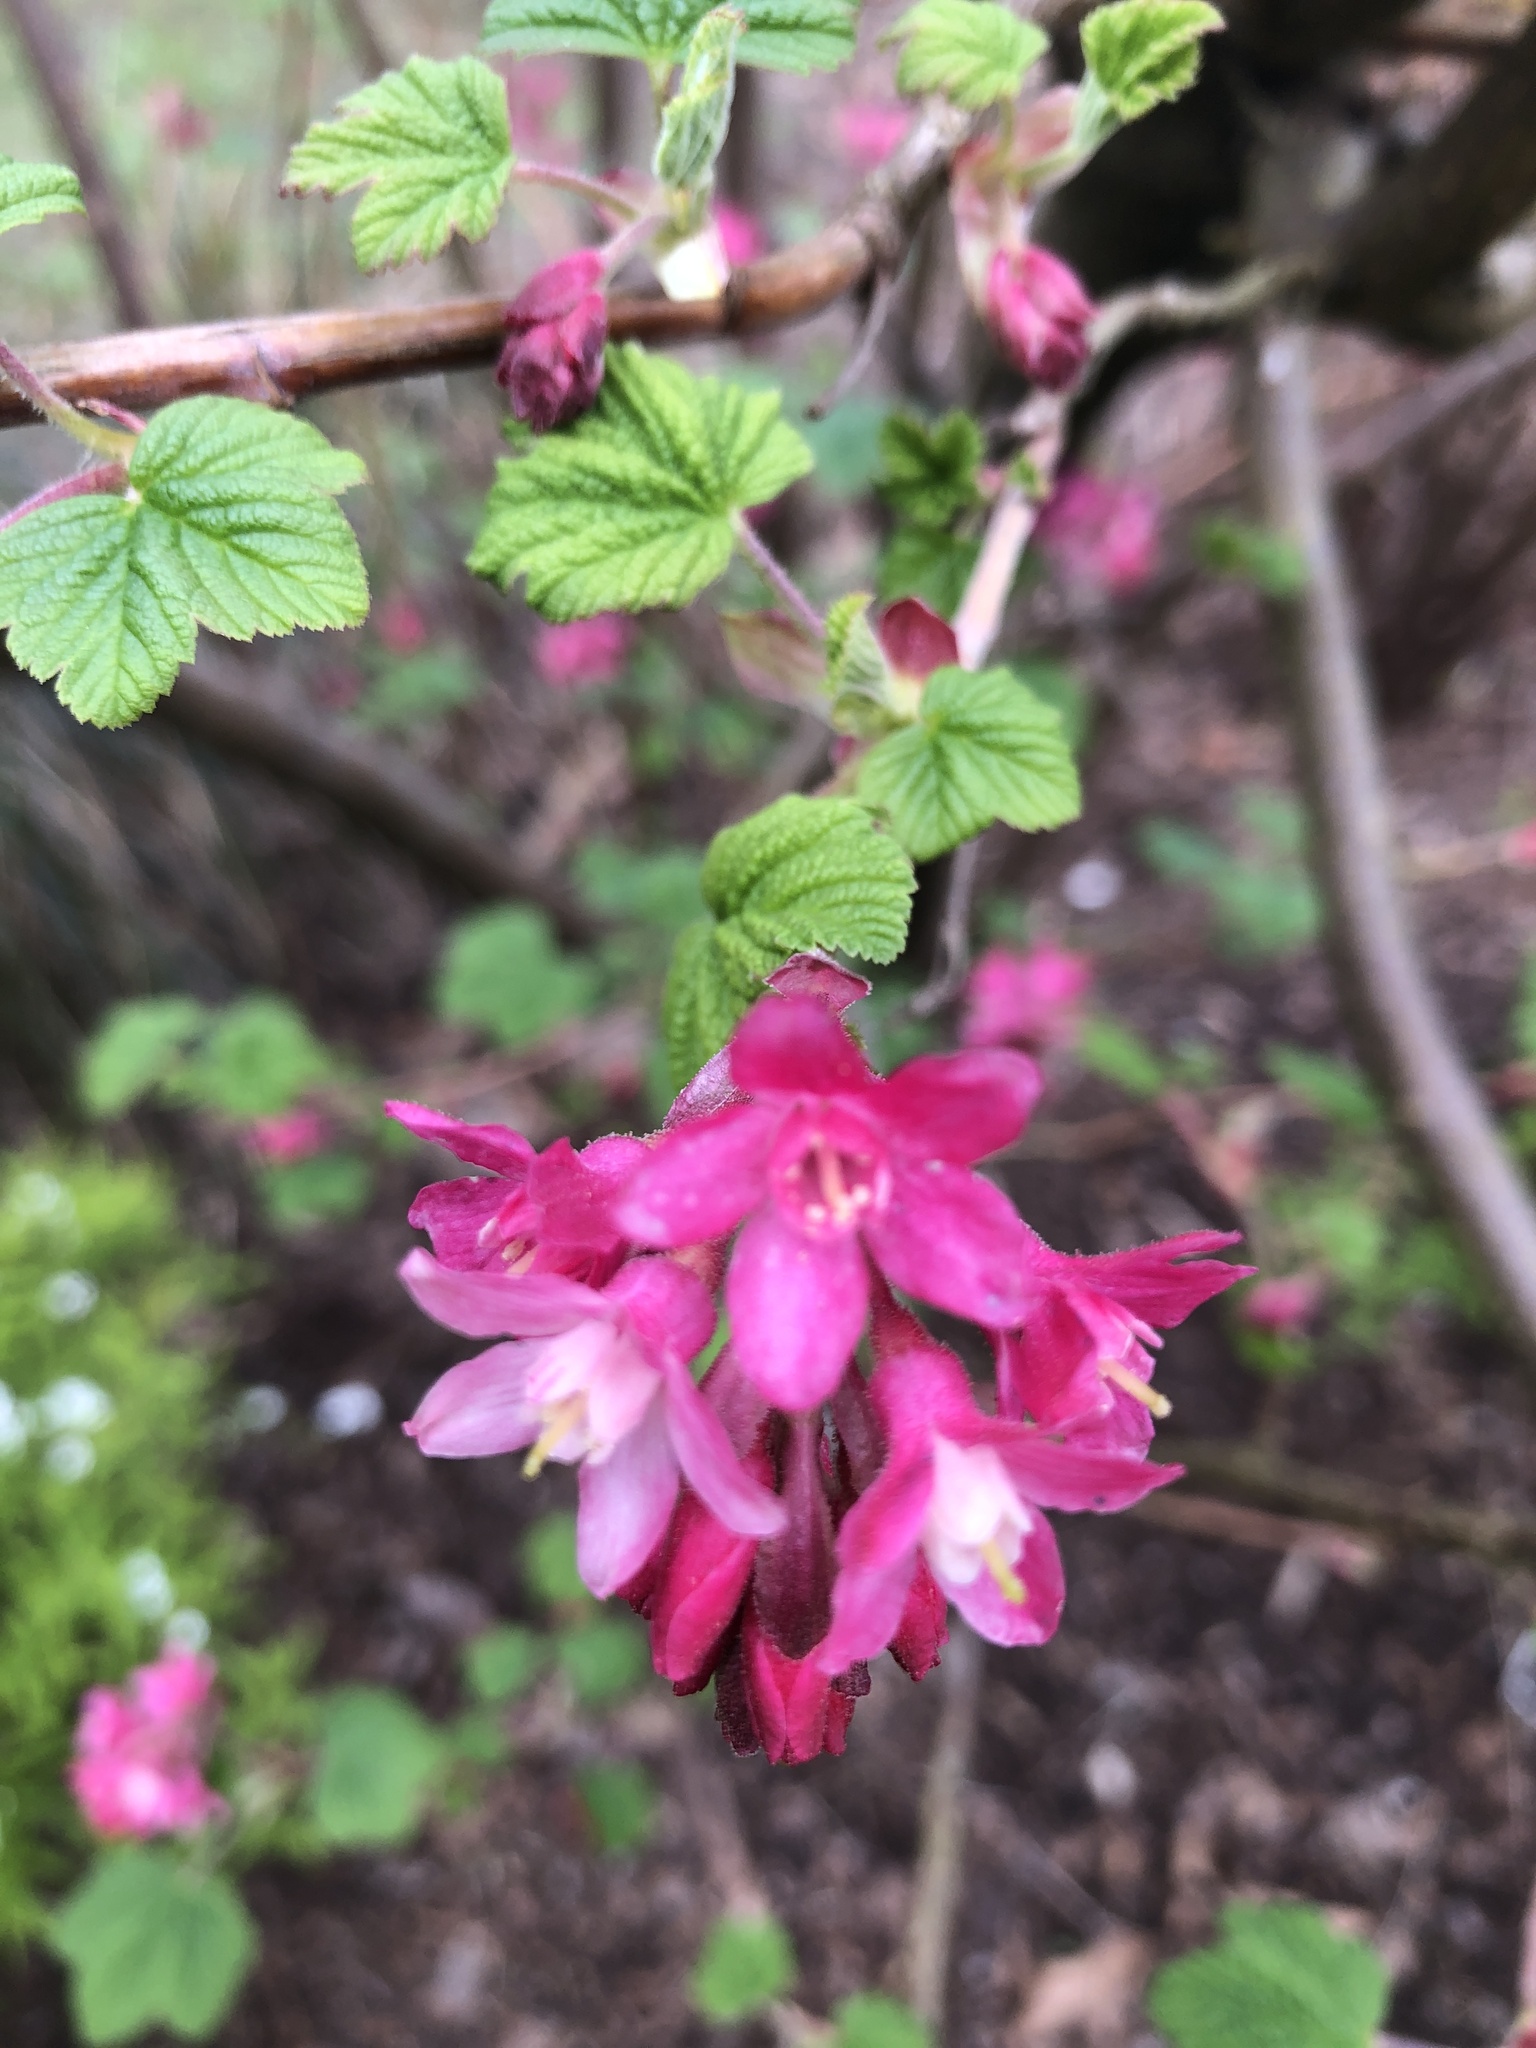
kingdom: Plantae
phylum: Tracheophyta
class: Magnoliopsida
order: Saxifragales
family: Grossulariaceae
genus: Ribes
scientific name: Ribes sanguineum
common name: Flowering currant
